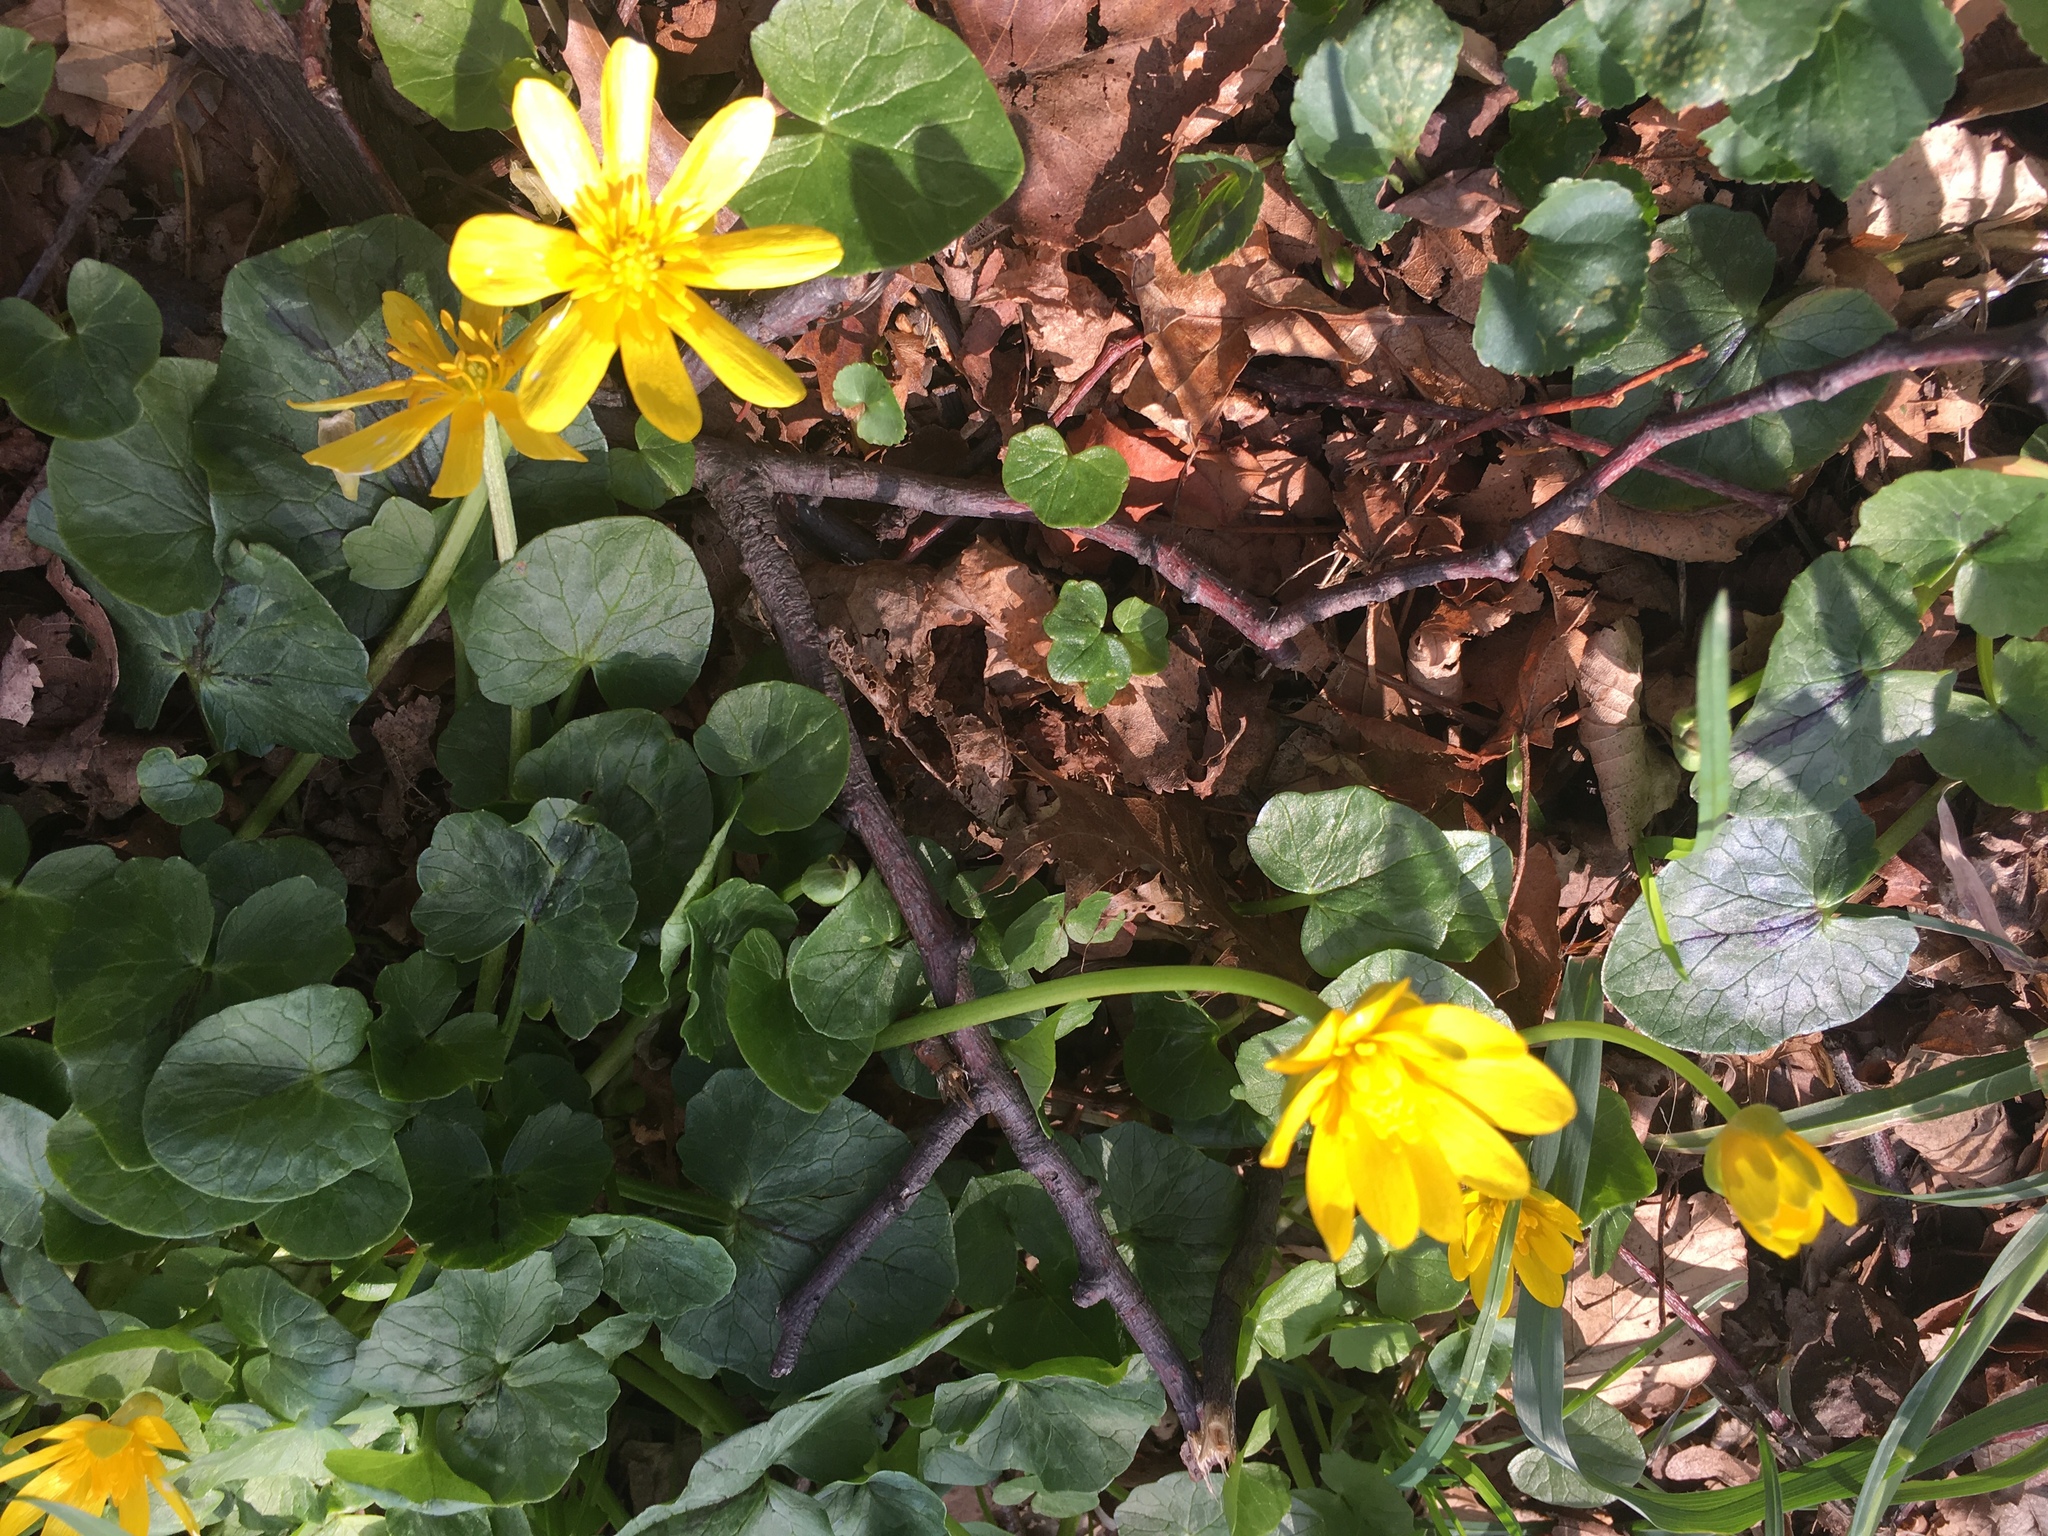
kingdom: Plantae
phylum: Tracheophyta
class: Magnoliopsida
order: Ranunculales
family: Ranunculaceae
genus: Ficaria
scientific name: Ficaria verna
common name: Lesser celandine
